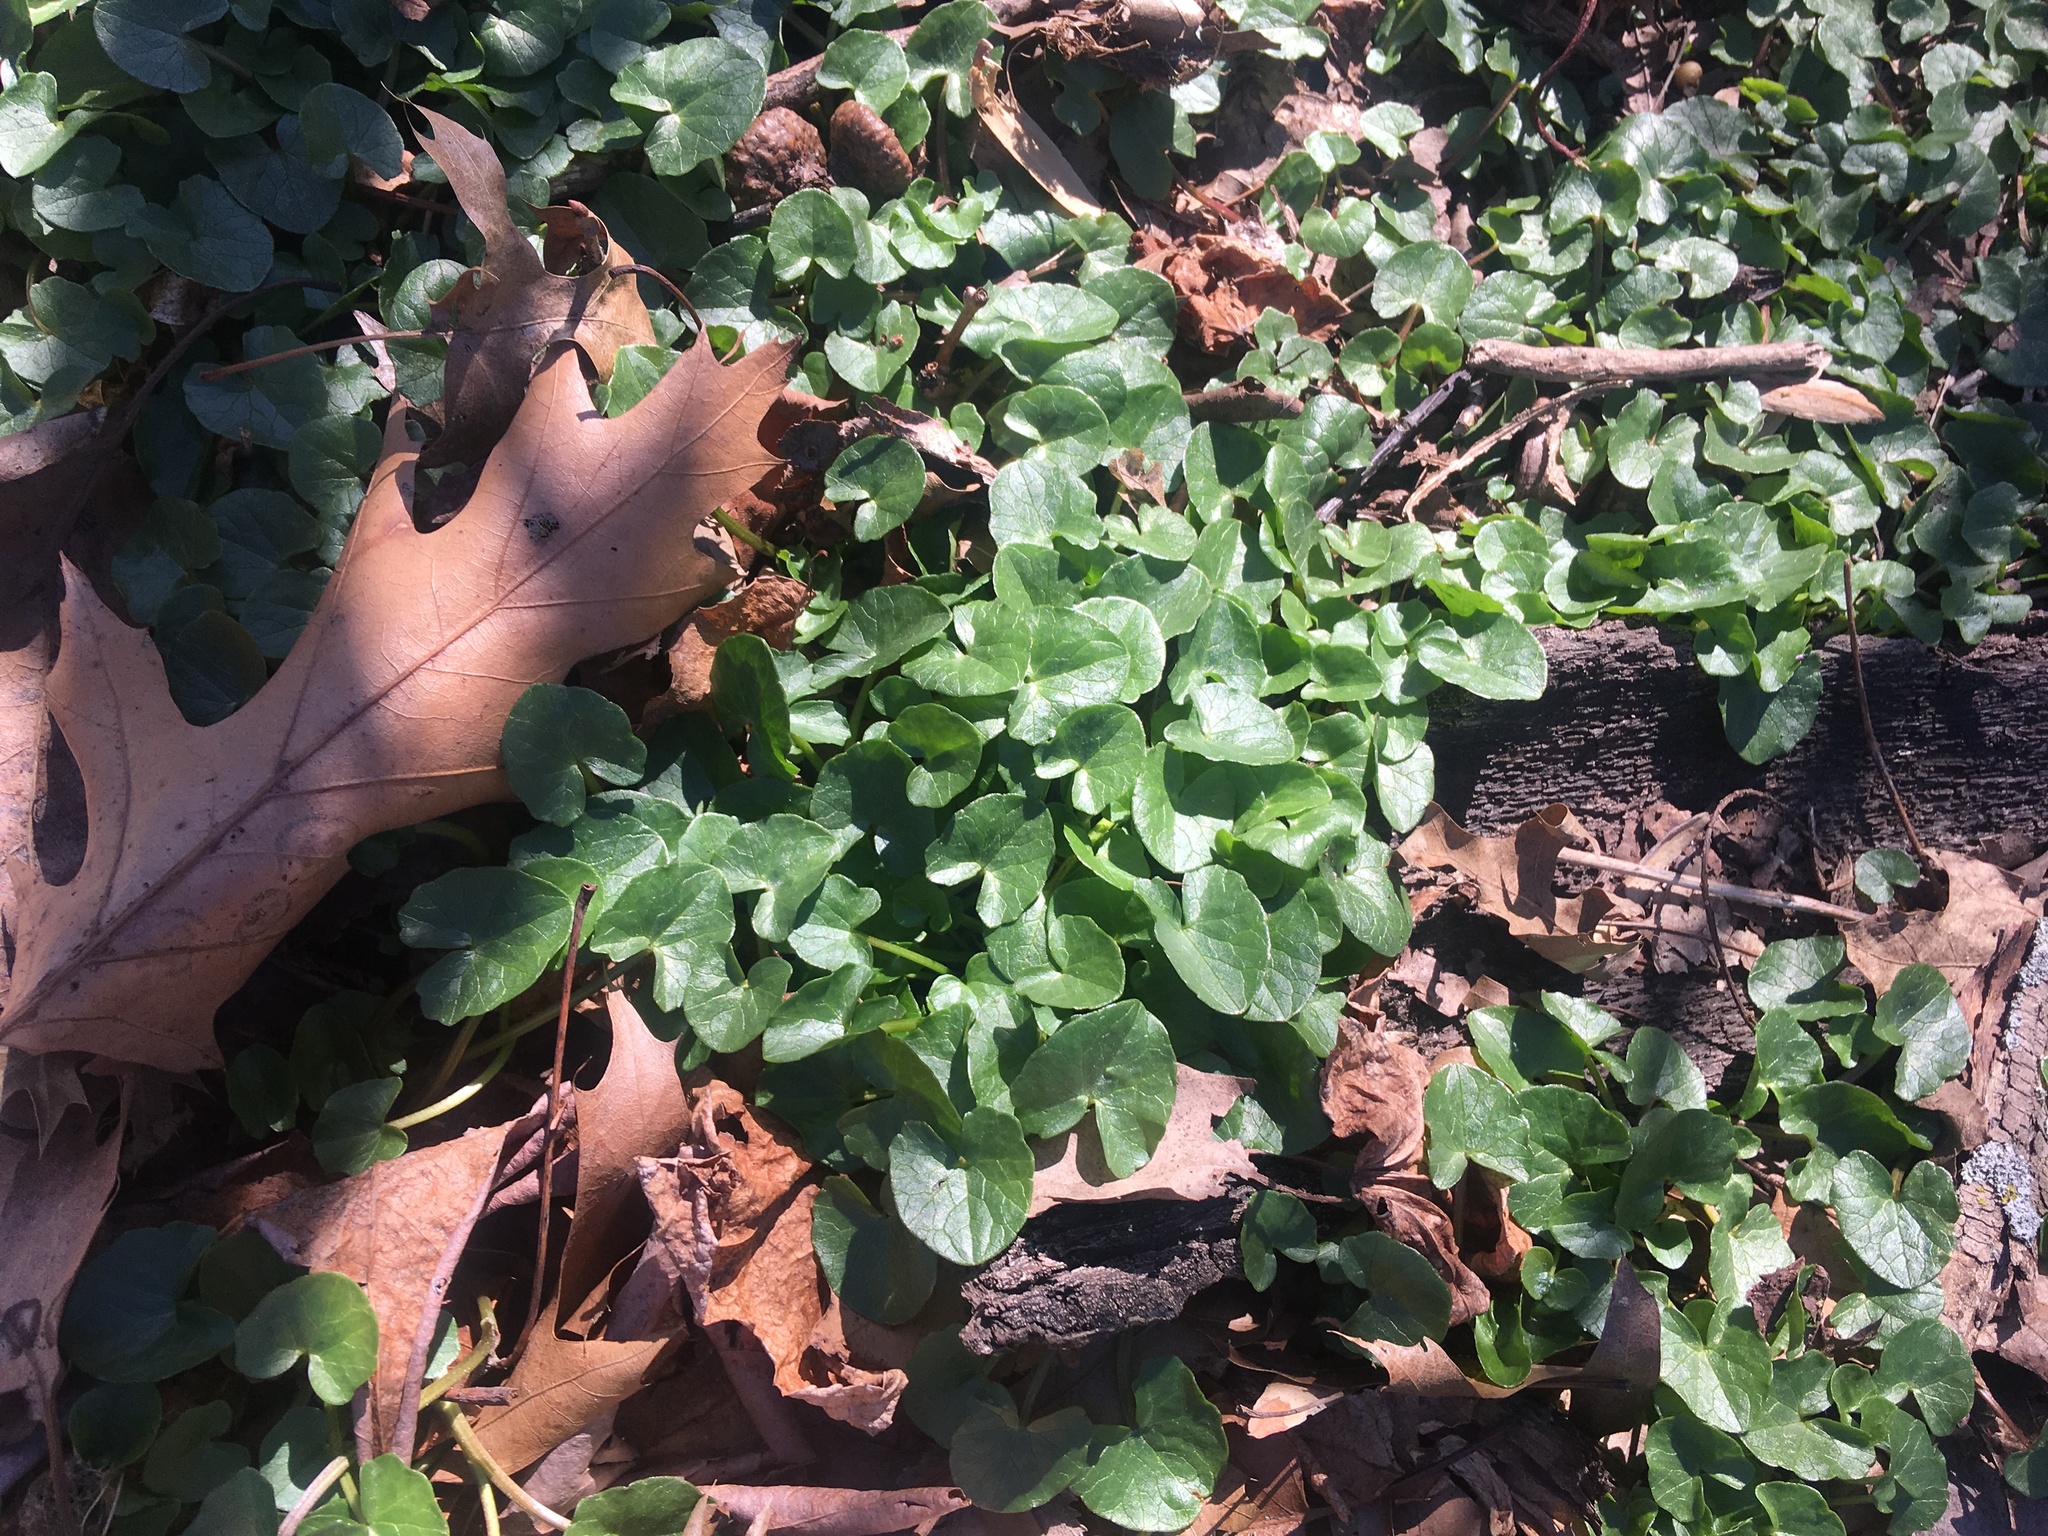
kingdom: Plantae
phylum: Tracheophyta
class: Magnoliopsida
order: Ranunculales
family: Ranunculaceae
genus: Ficaria
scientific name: Ficaria verna
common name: Lesser celandine
